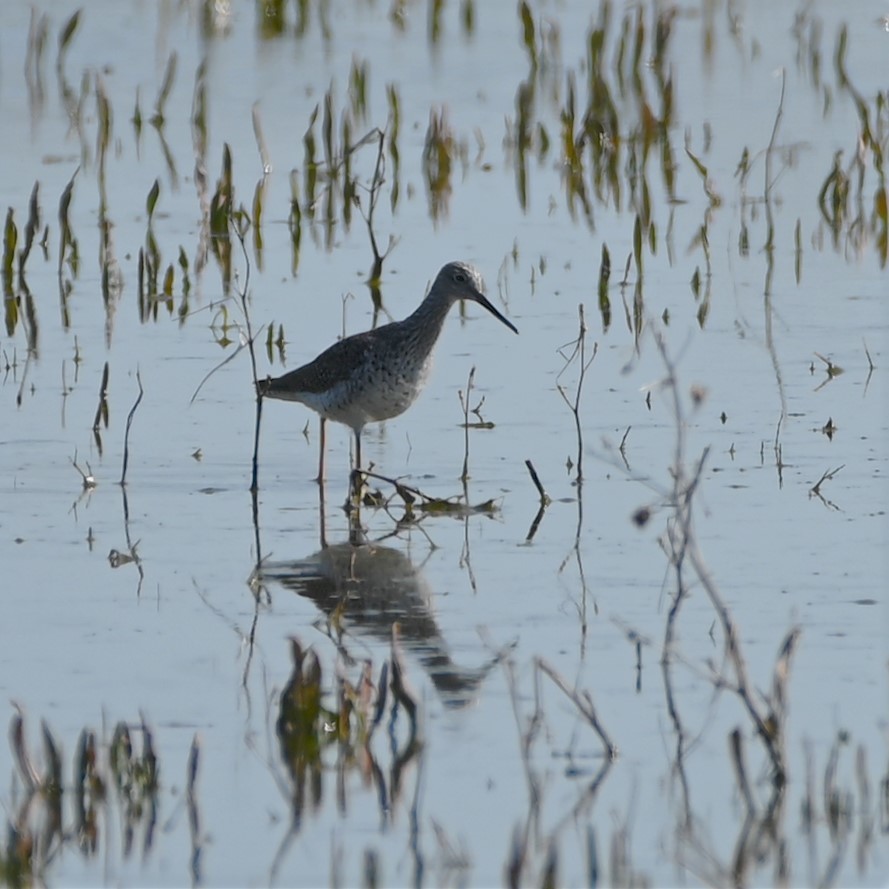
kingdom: Animalia
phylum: Chordata
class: Aves
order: Charadriiformes
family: Scolopacidae
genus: Tringa
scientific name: Tringa melanoleuca
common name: Greater yellowlegs
